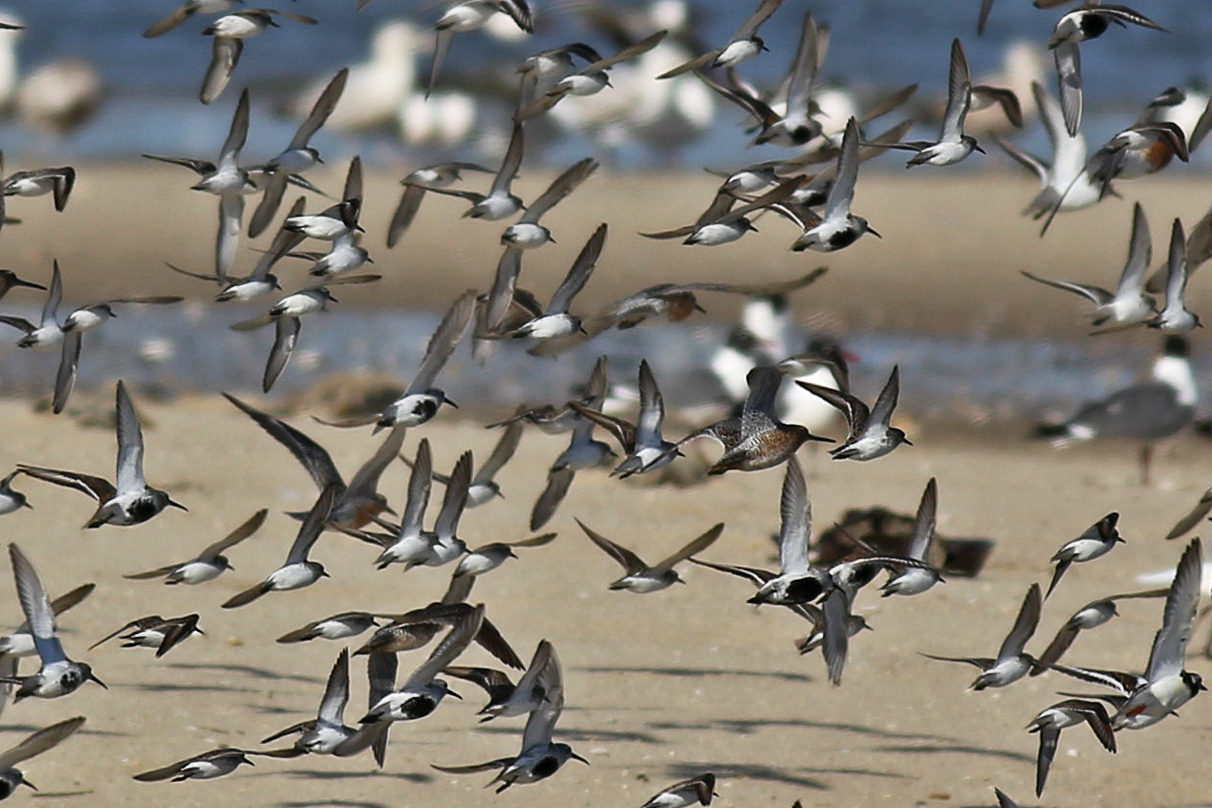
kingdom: Animalia
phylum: Chordata
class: Aves
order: Charadriiformes
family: Scolopacidae
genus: Limnodromus
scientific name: Limnodromus griseus
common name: Short-billed dowitcher
